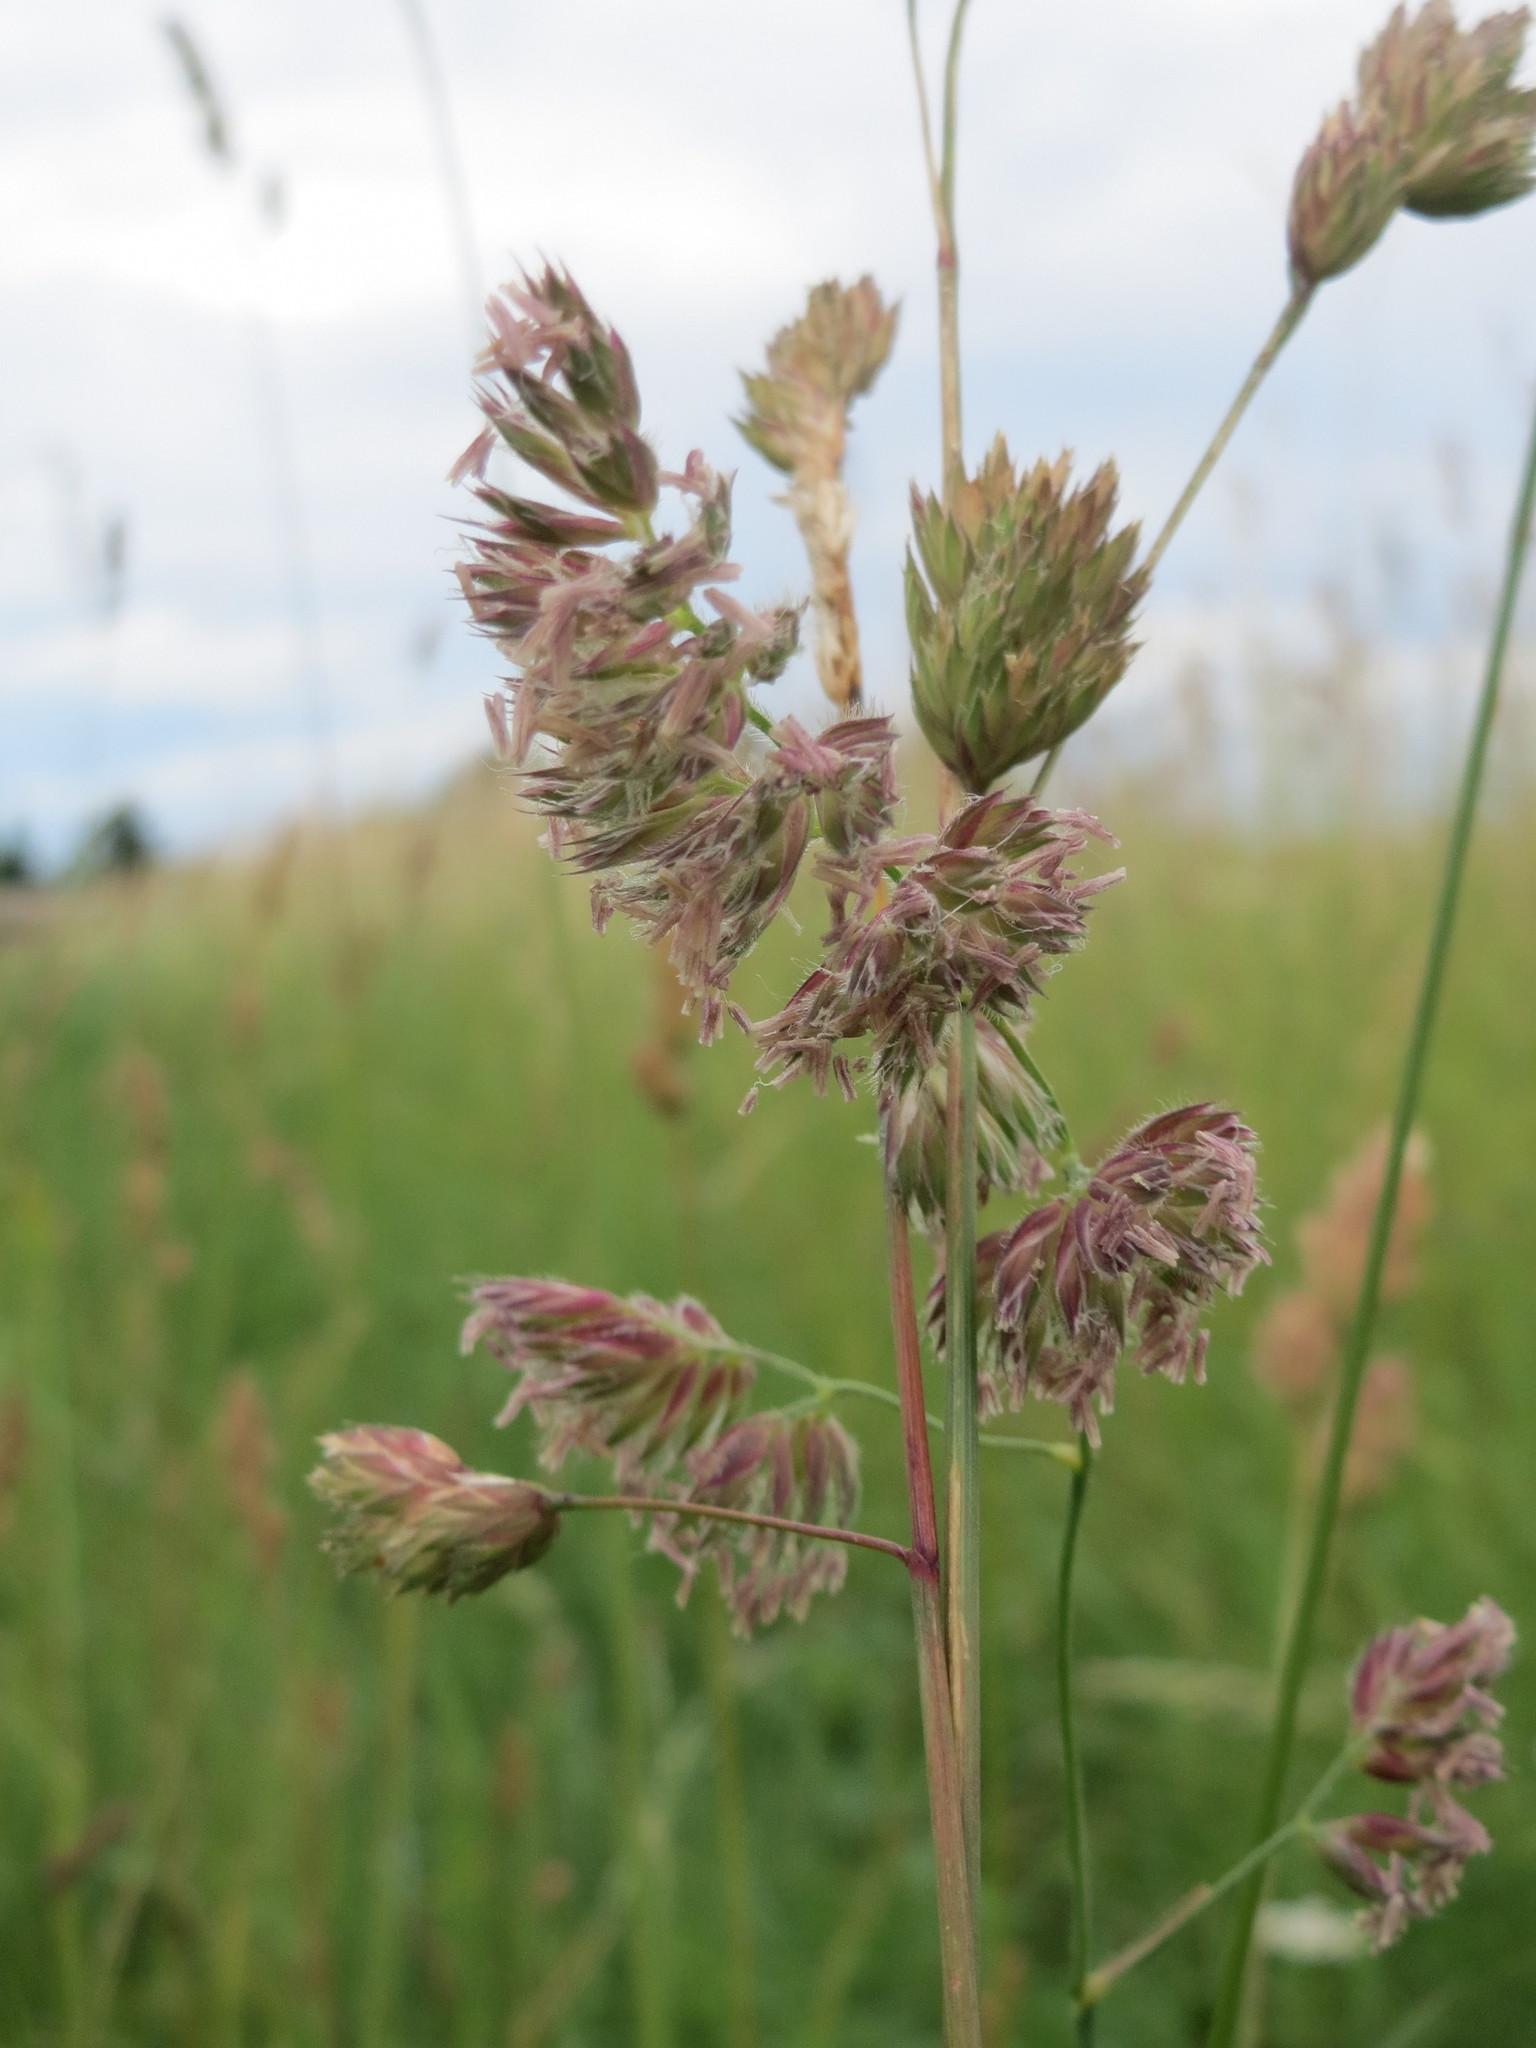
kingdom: Plantae
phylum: Tracheophyta
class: Liliopsida
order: Poales
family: Poaceae
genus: Dactylis
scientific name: Dactylis glomerata
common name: Orchardgrass
